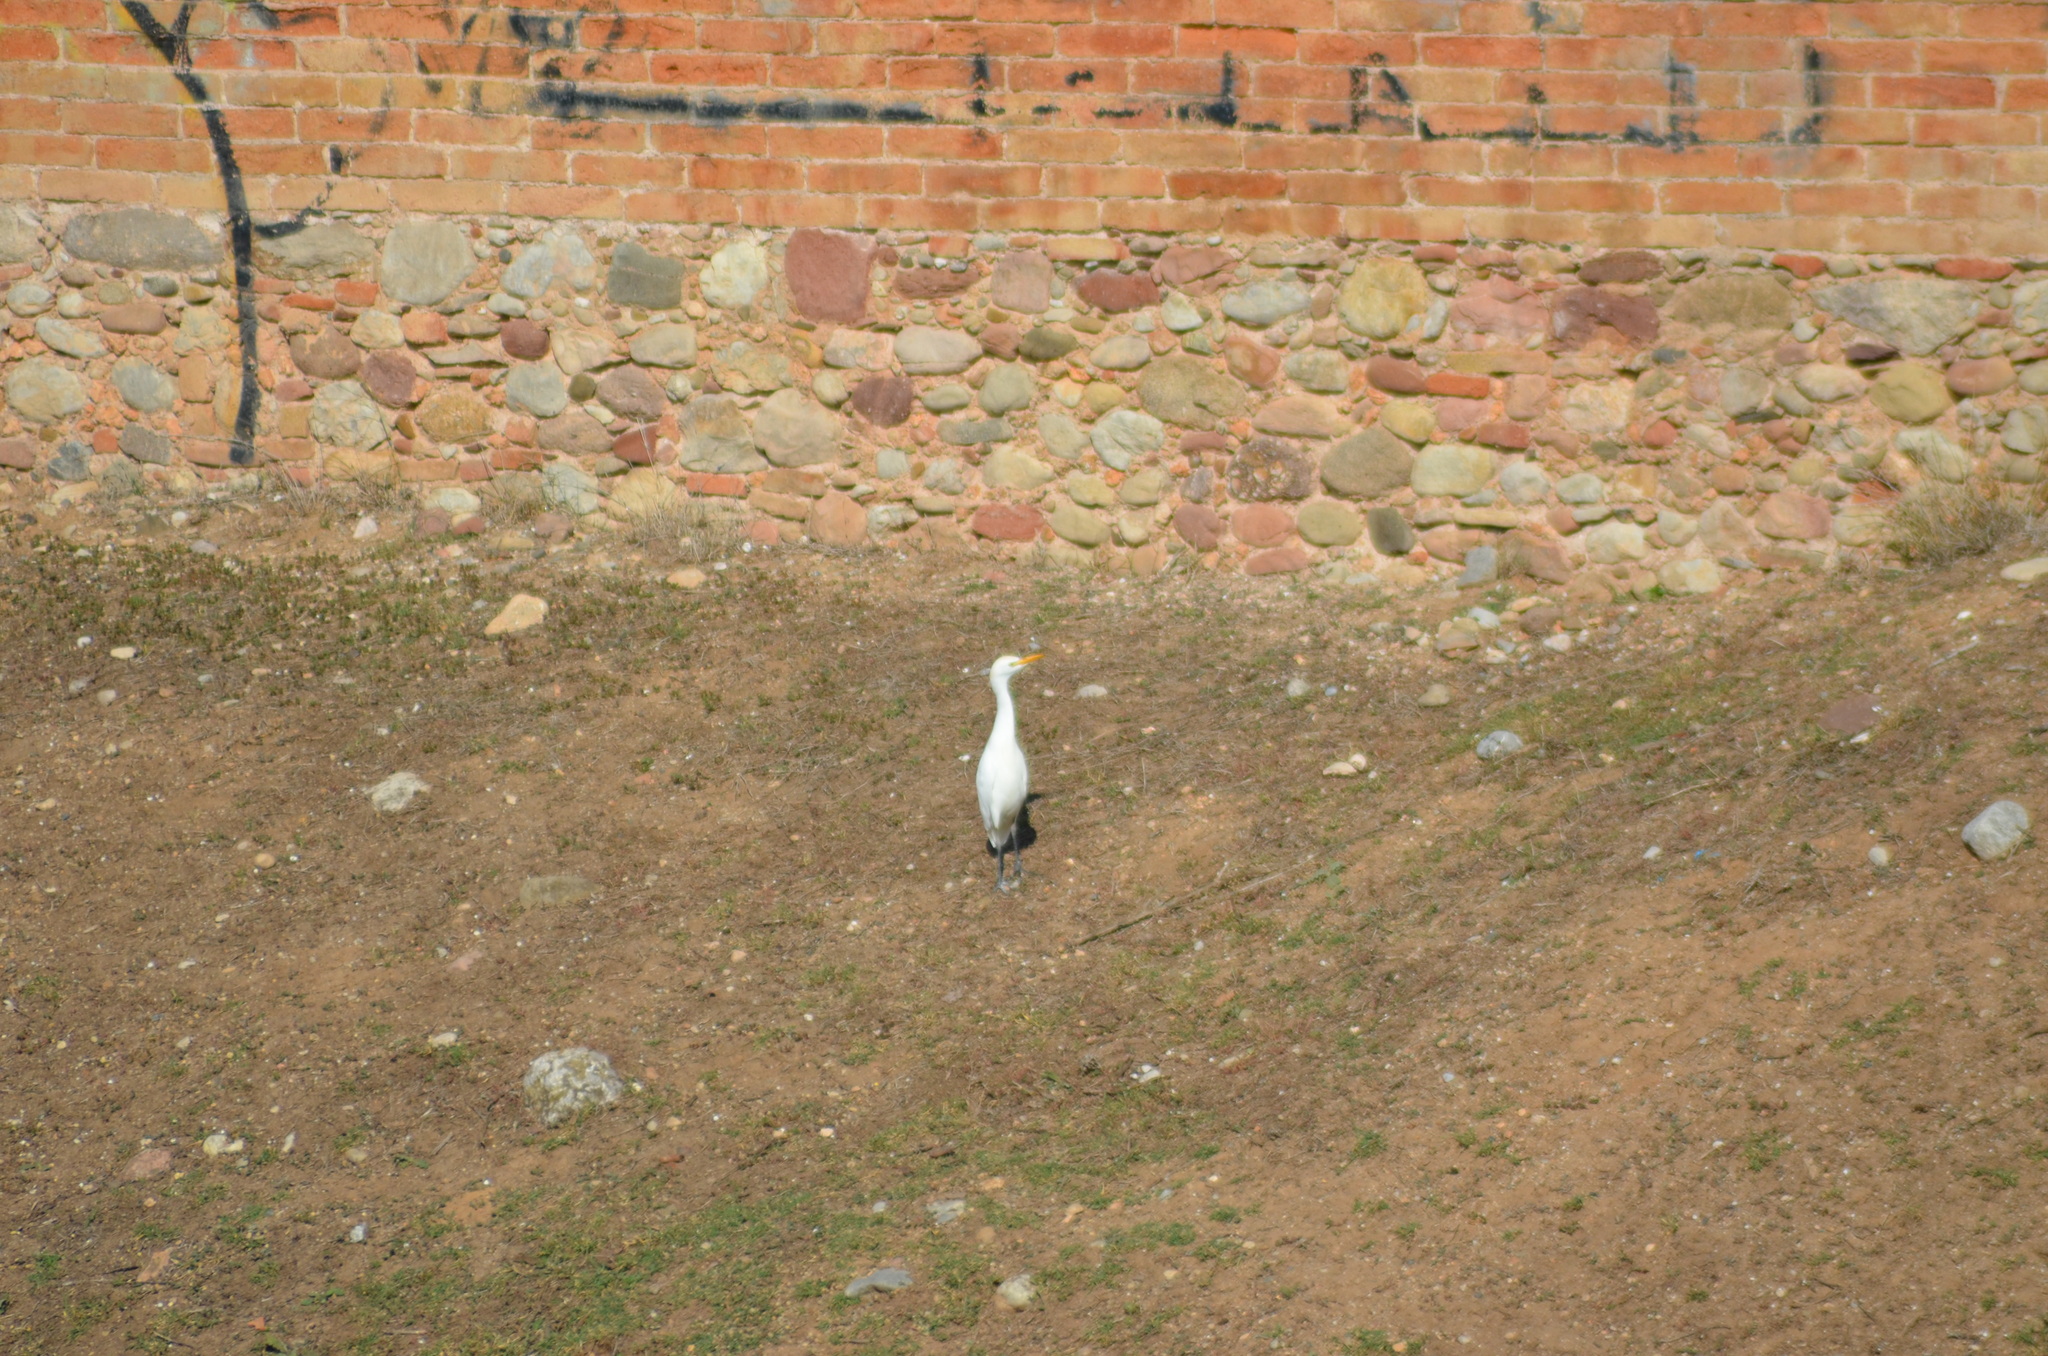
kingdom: Animalia
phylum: Chordata
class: Aves
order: Pelecaniformes
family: Ardeidae
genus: Bubulcus
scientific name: Bubulcus ibis
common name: Cattle egret
